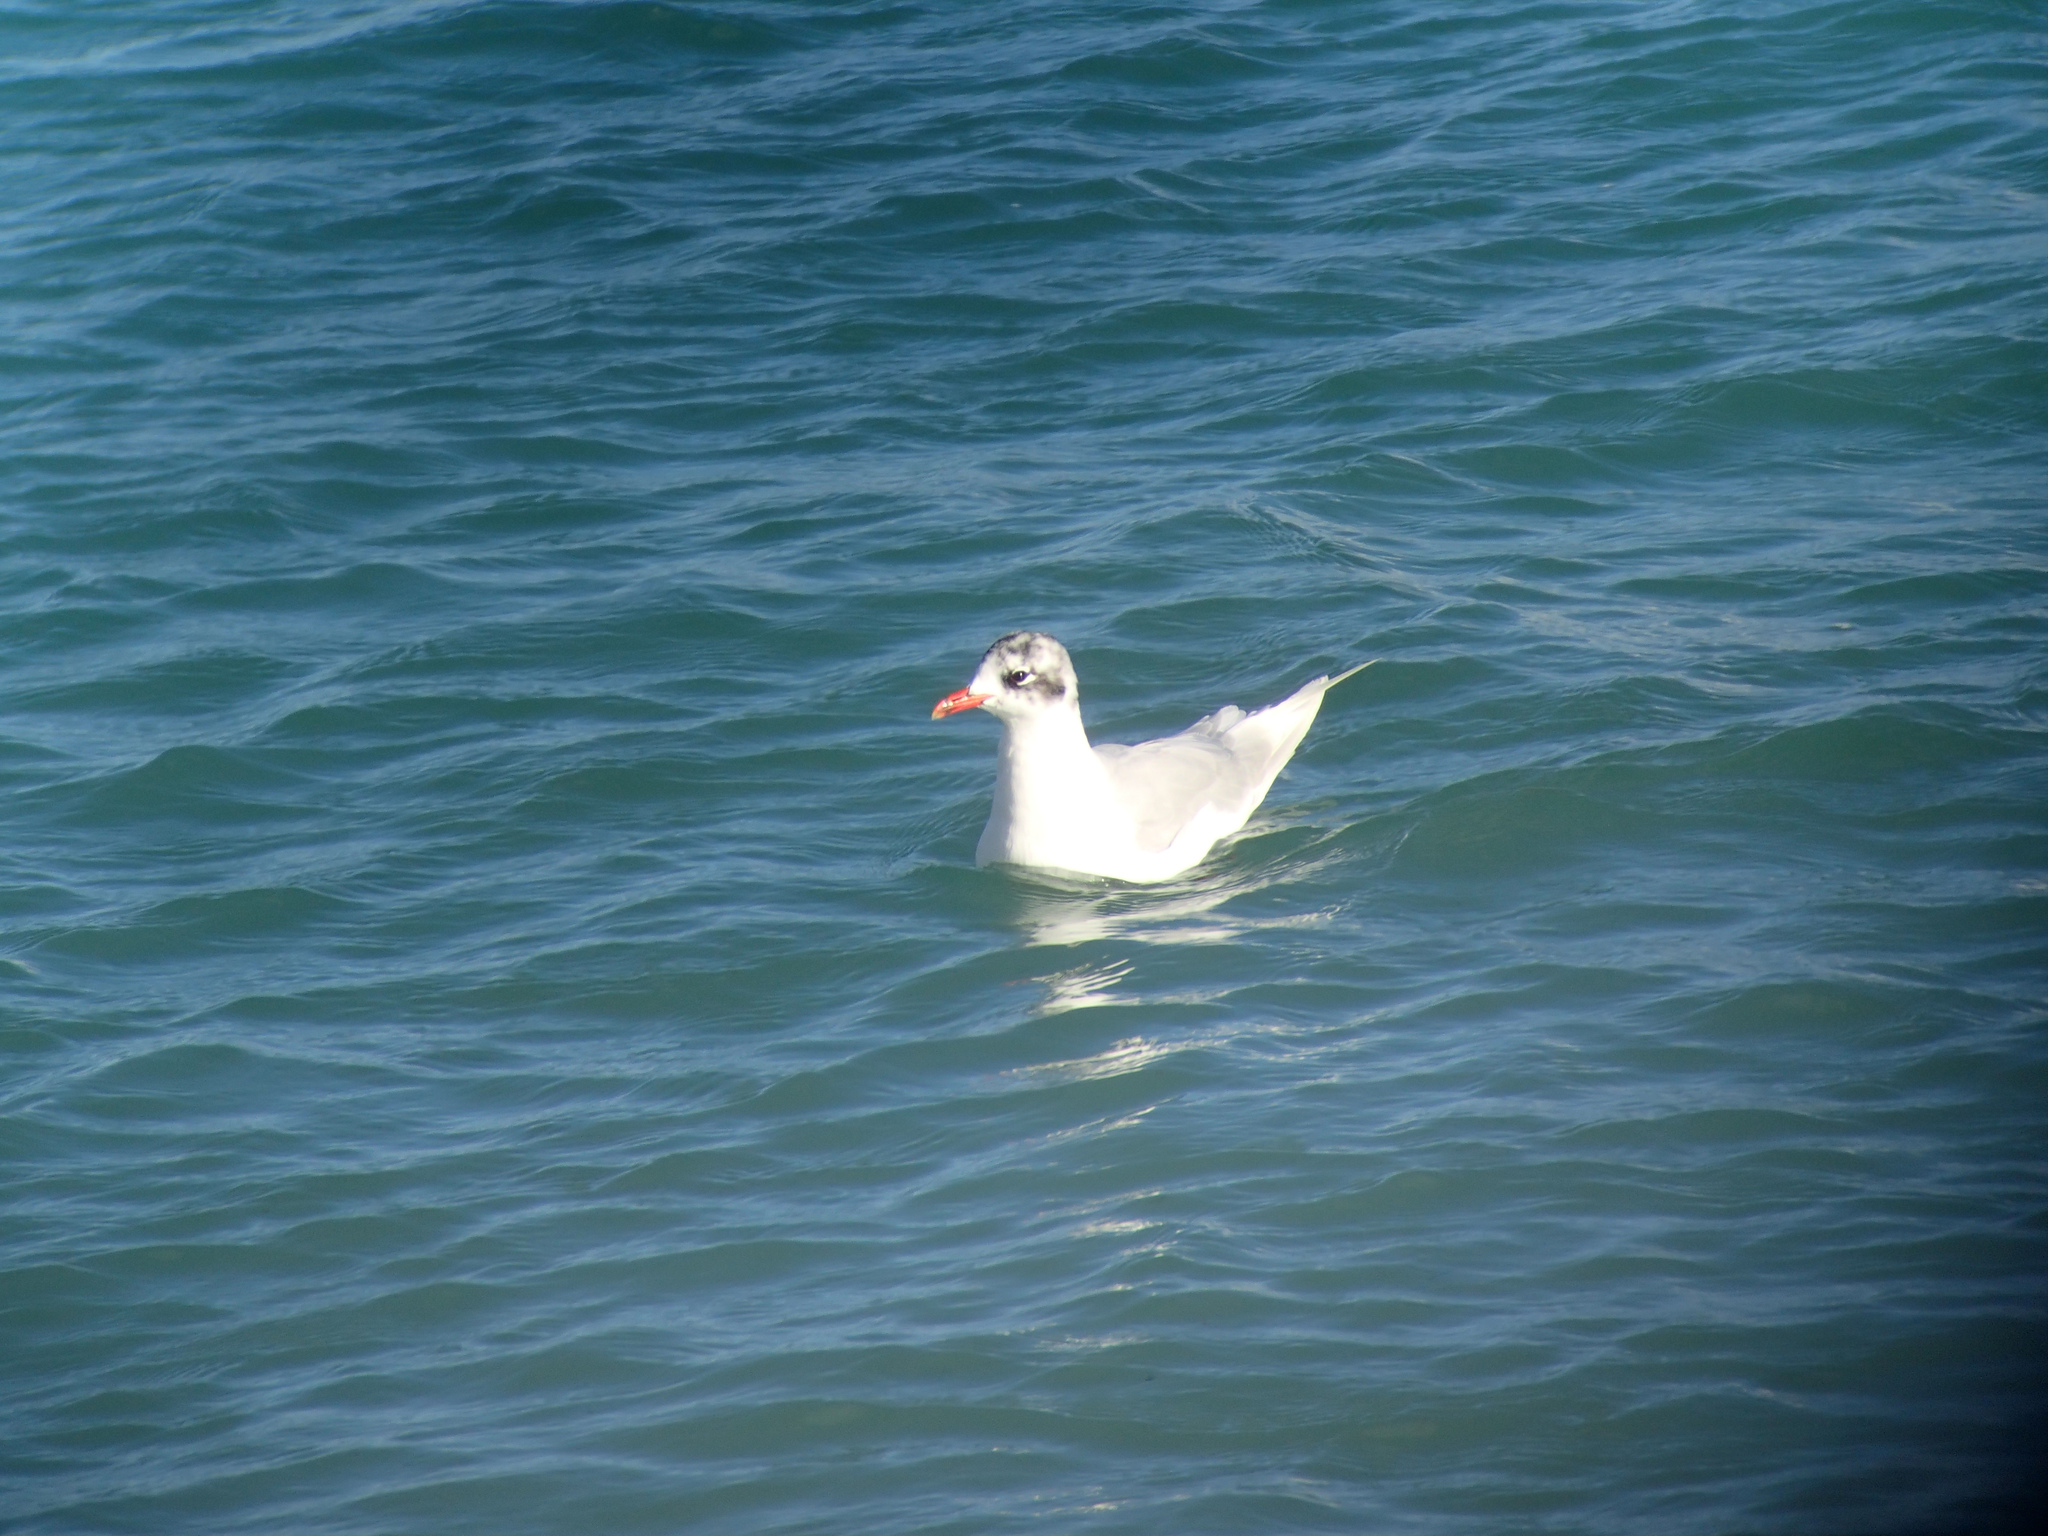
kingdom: Animalia
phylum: Chordata
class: Aves
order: Charadriiformes
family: Laridae
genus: Ichthyaetus
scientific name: Ichthyaetus melanocephalus
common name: Mediterranean gull
